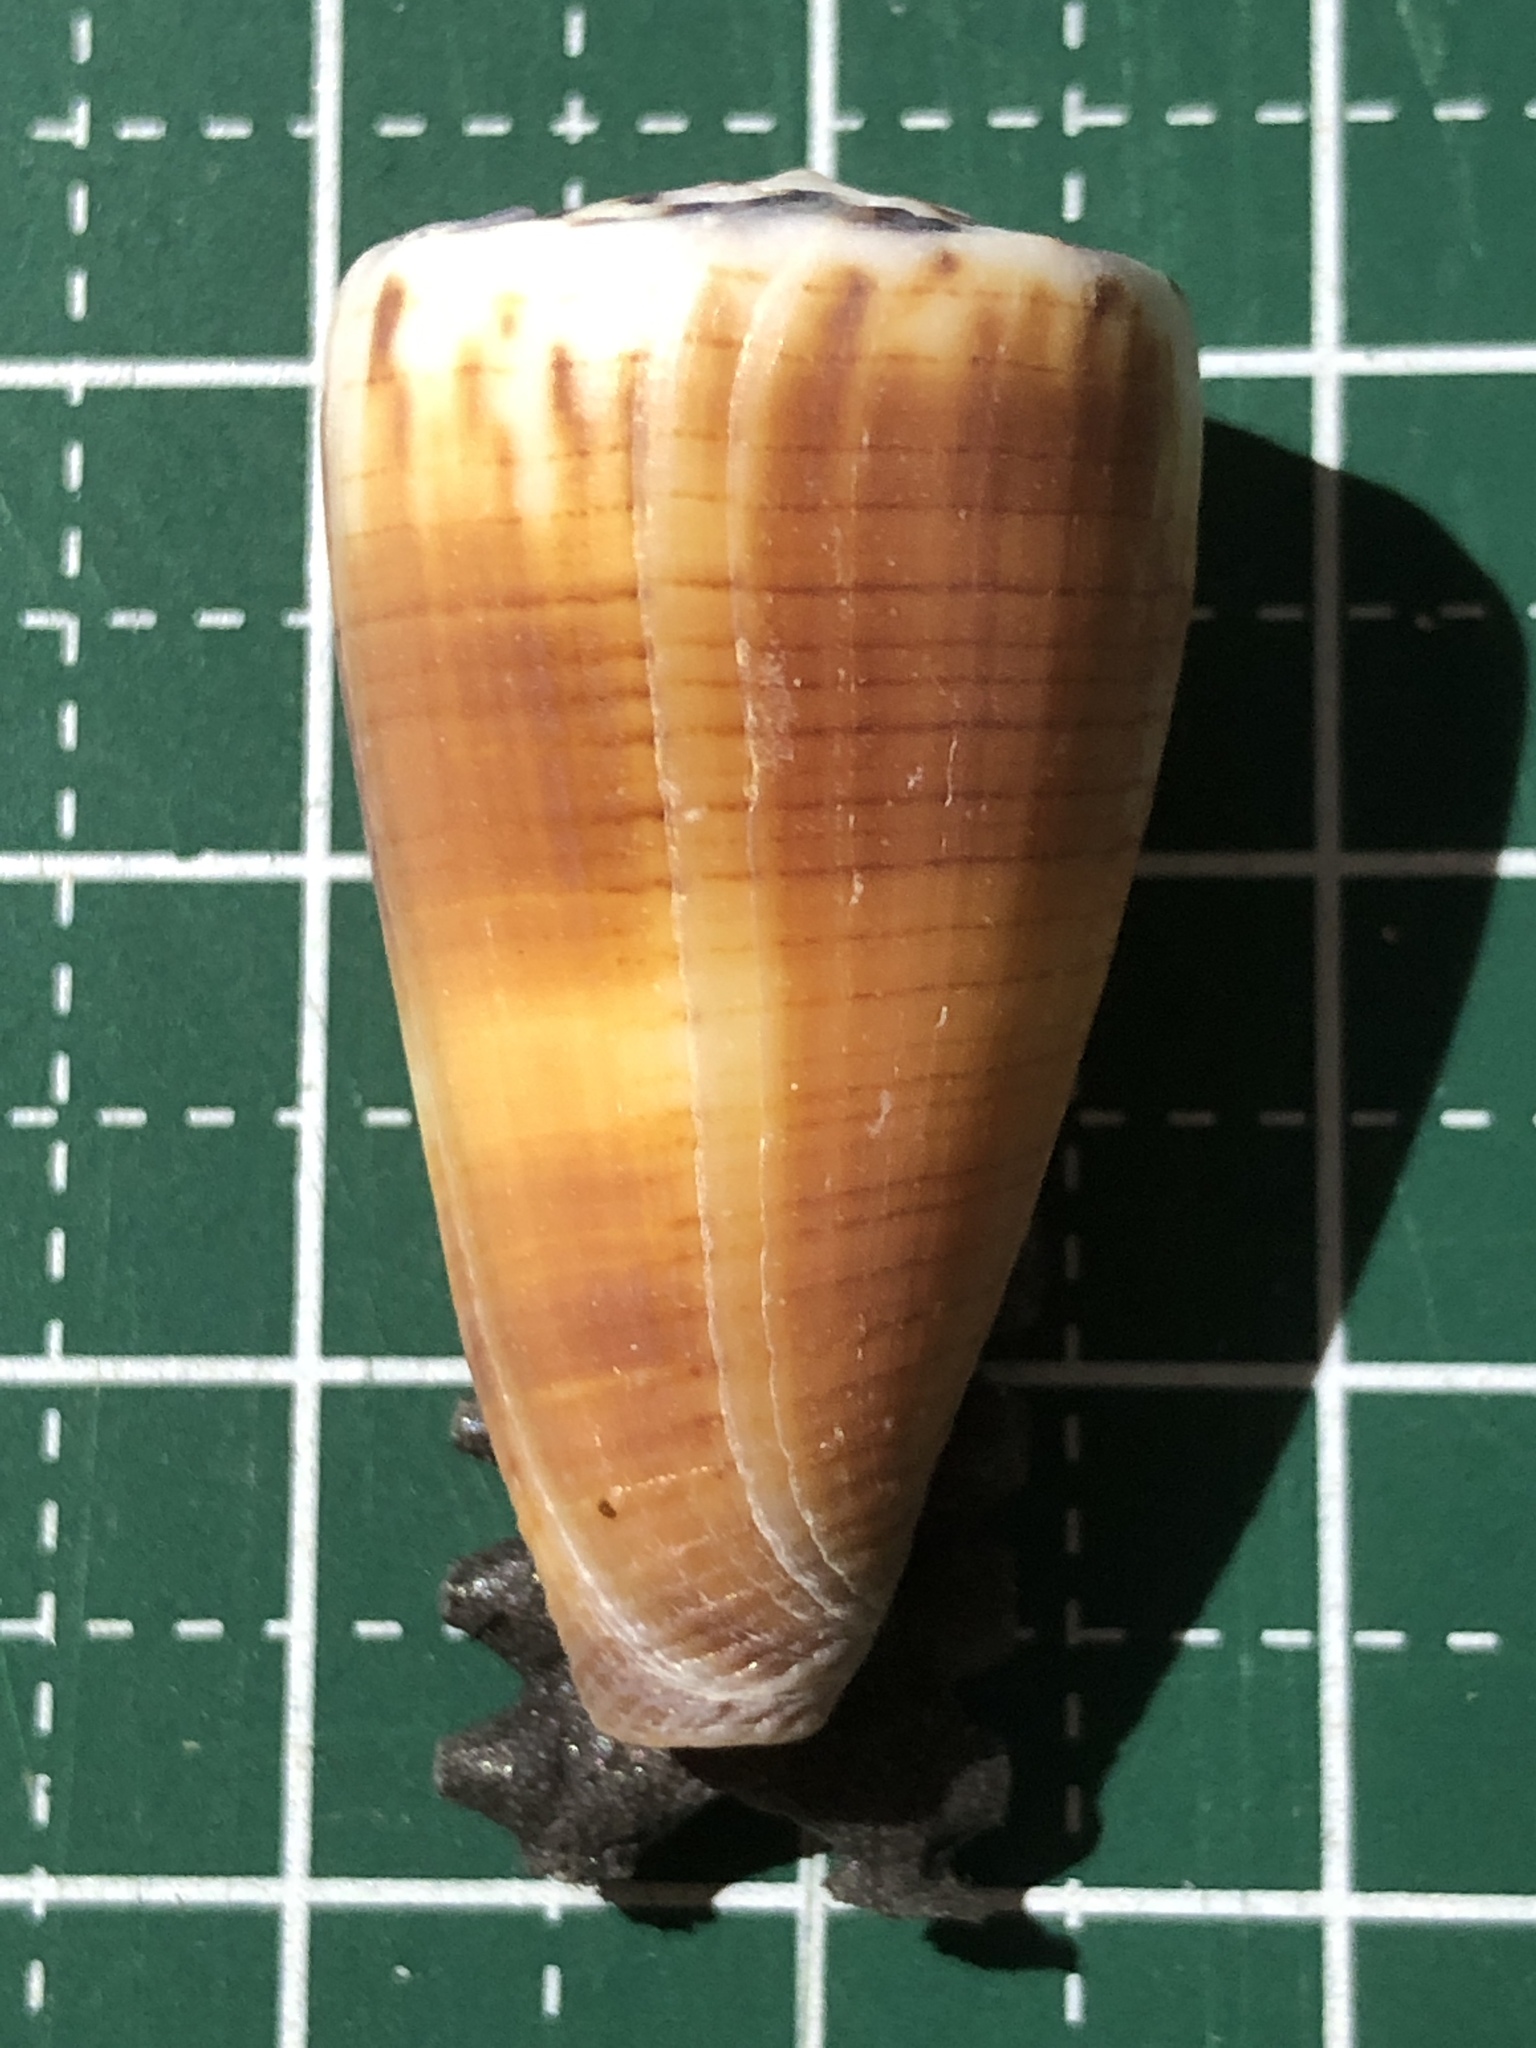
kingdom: Animalia
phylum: Mollusca
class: Gastropoda
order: Neogastropoda
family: Conidae
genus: Conus
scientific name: Conus planorbis
